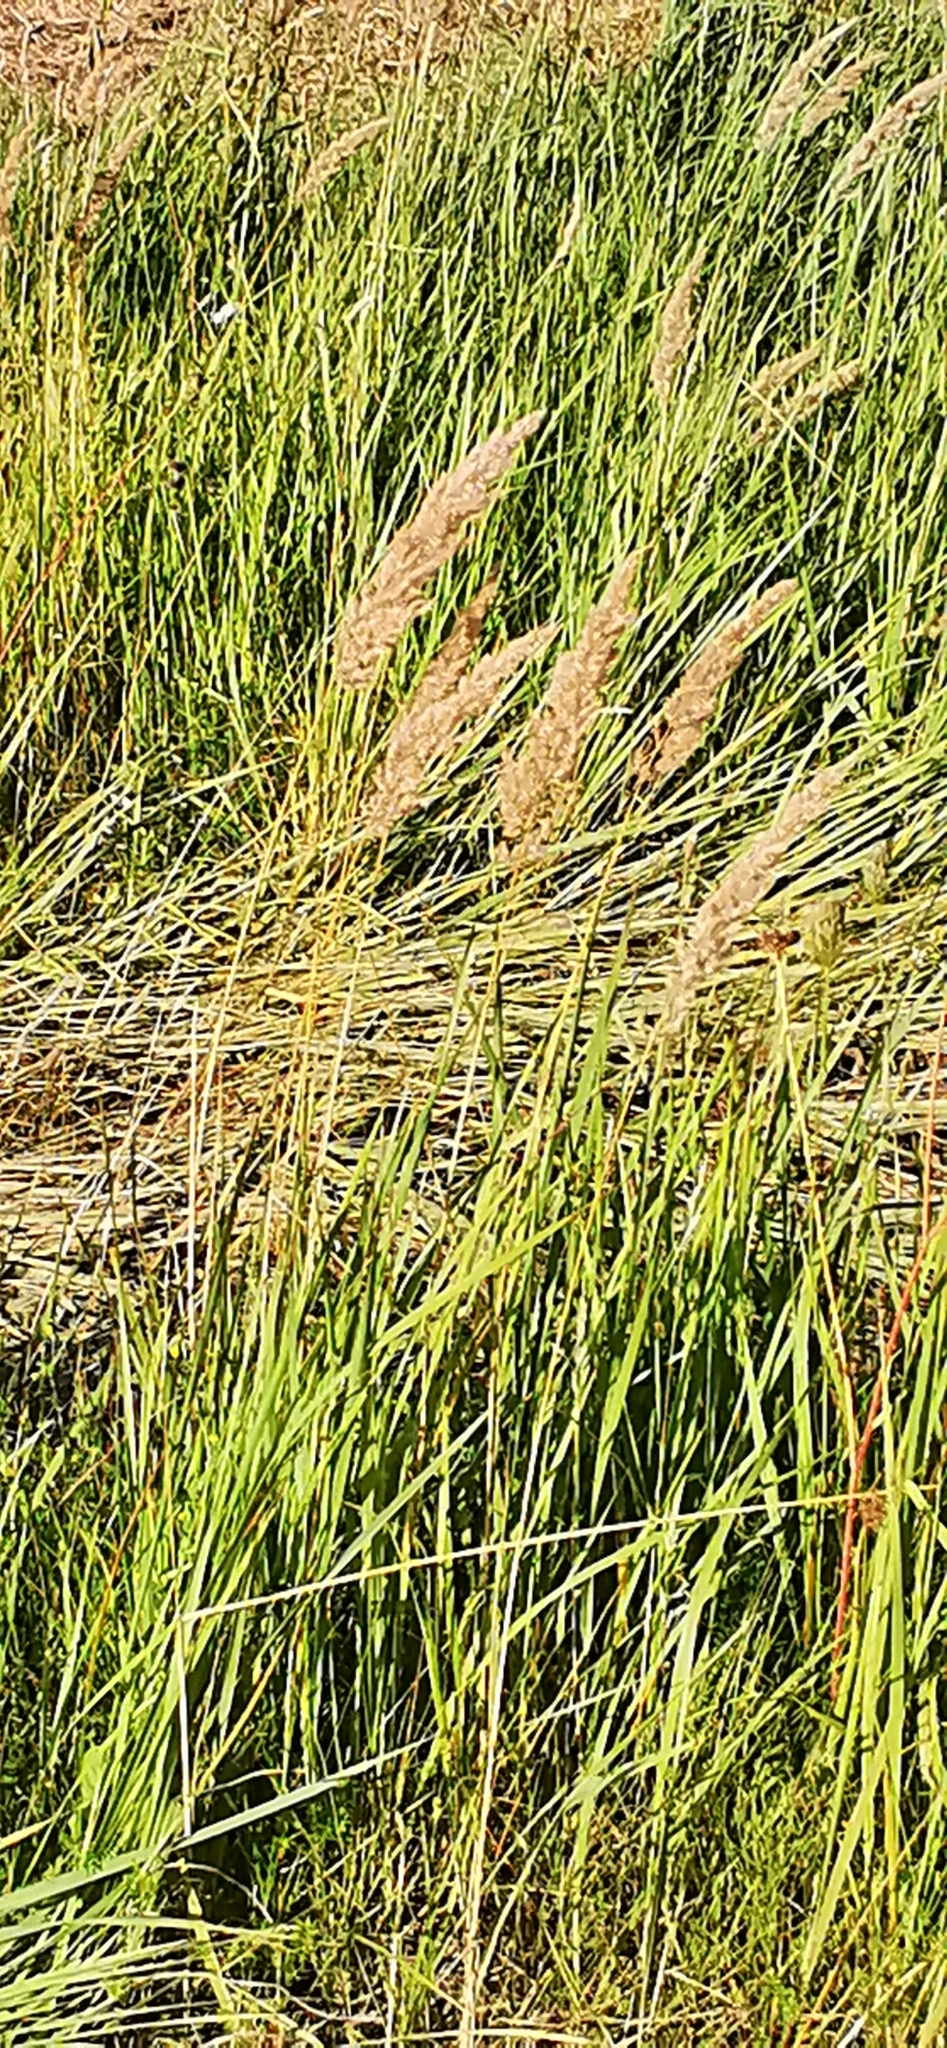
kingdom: Plantae
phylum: Tracheophyta
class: Liliopsida
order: Poales
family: Poaceae
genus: Calamagrostis
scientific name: Calamagrostis epigejos
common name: Wood small-reed
